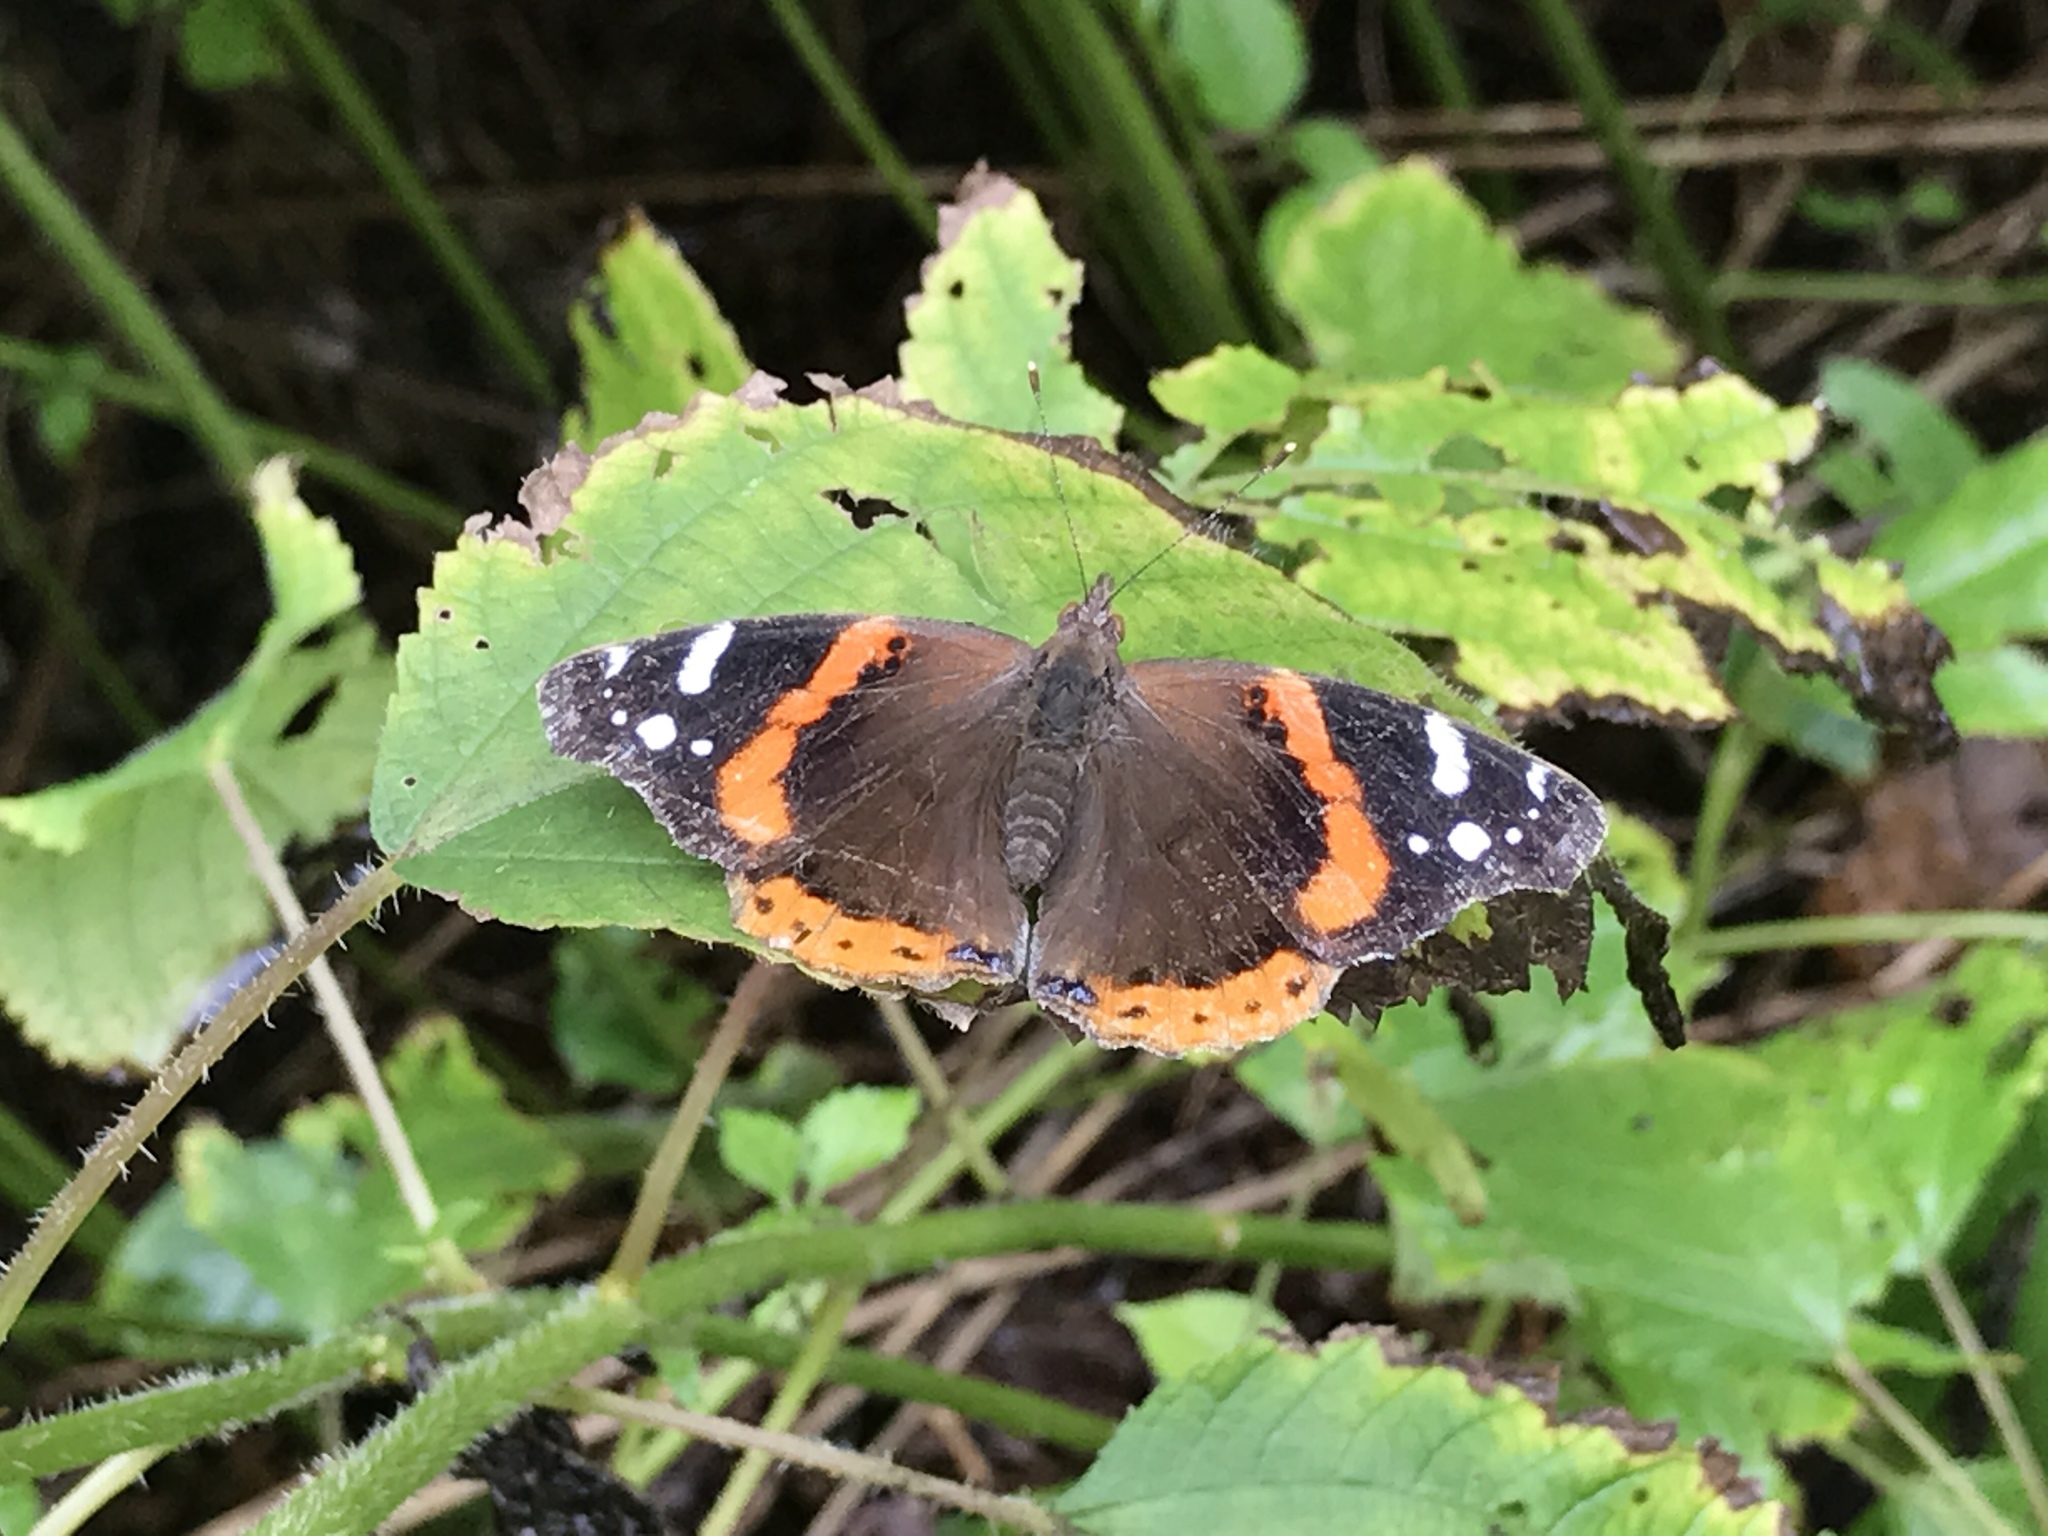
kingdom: Animalia
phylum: Arthropoda
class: Insecta
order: Lepidoptera
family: Nymphalidae
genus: Vanessa
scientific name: Vanessa atalanta
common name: Red admiral
